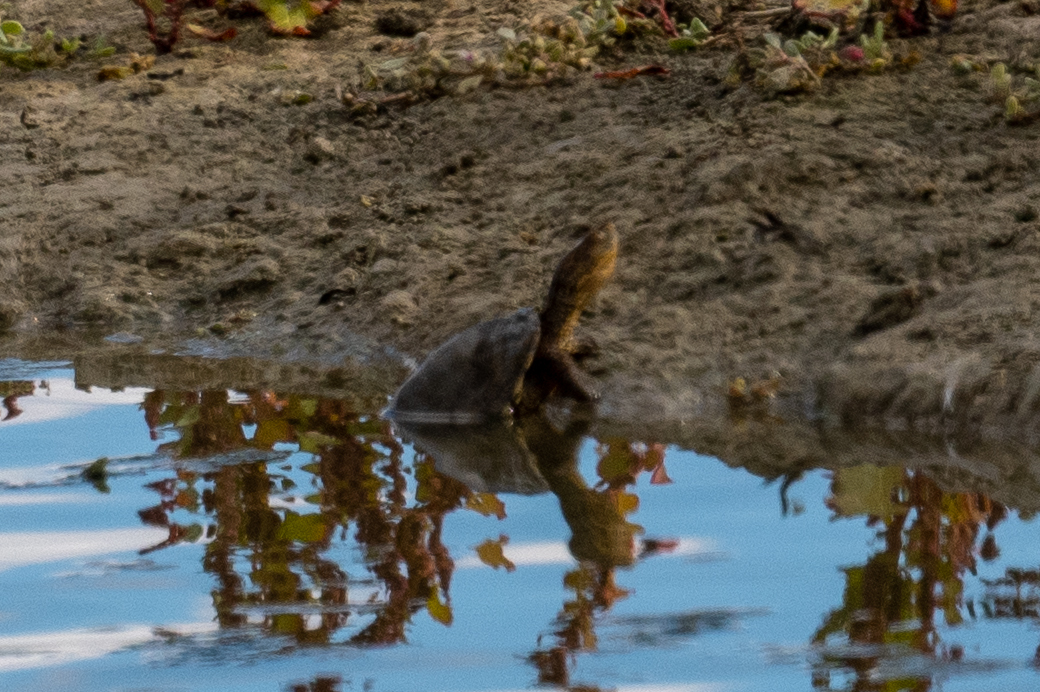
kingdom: Animalia
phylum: Chordata
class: Testudines
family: Emydidae
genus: Actinemys
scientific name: Actinemys marmorata
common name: Western pond turtle
